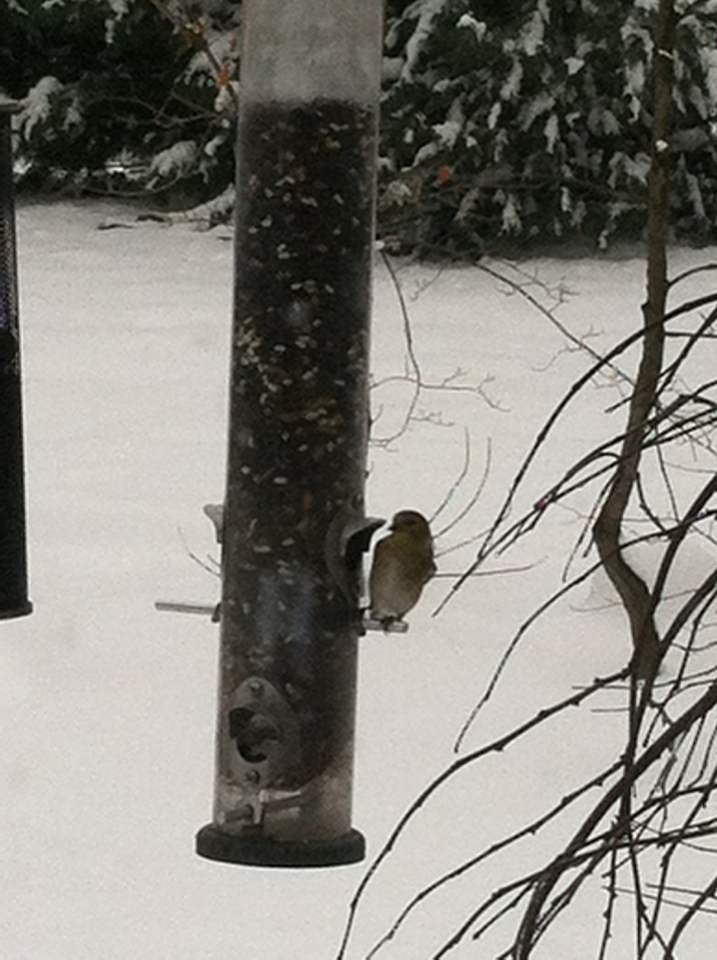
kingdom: Animalia
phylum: Chordata
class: Aves
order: Passeriformes
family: Fringillidae
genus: Spinus
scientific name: Spinus tristis
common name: American goldfinch
